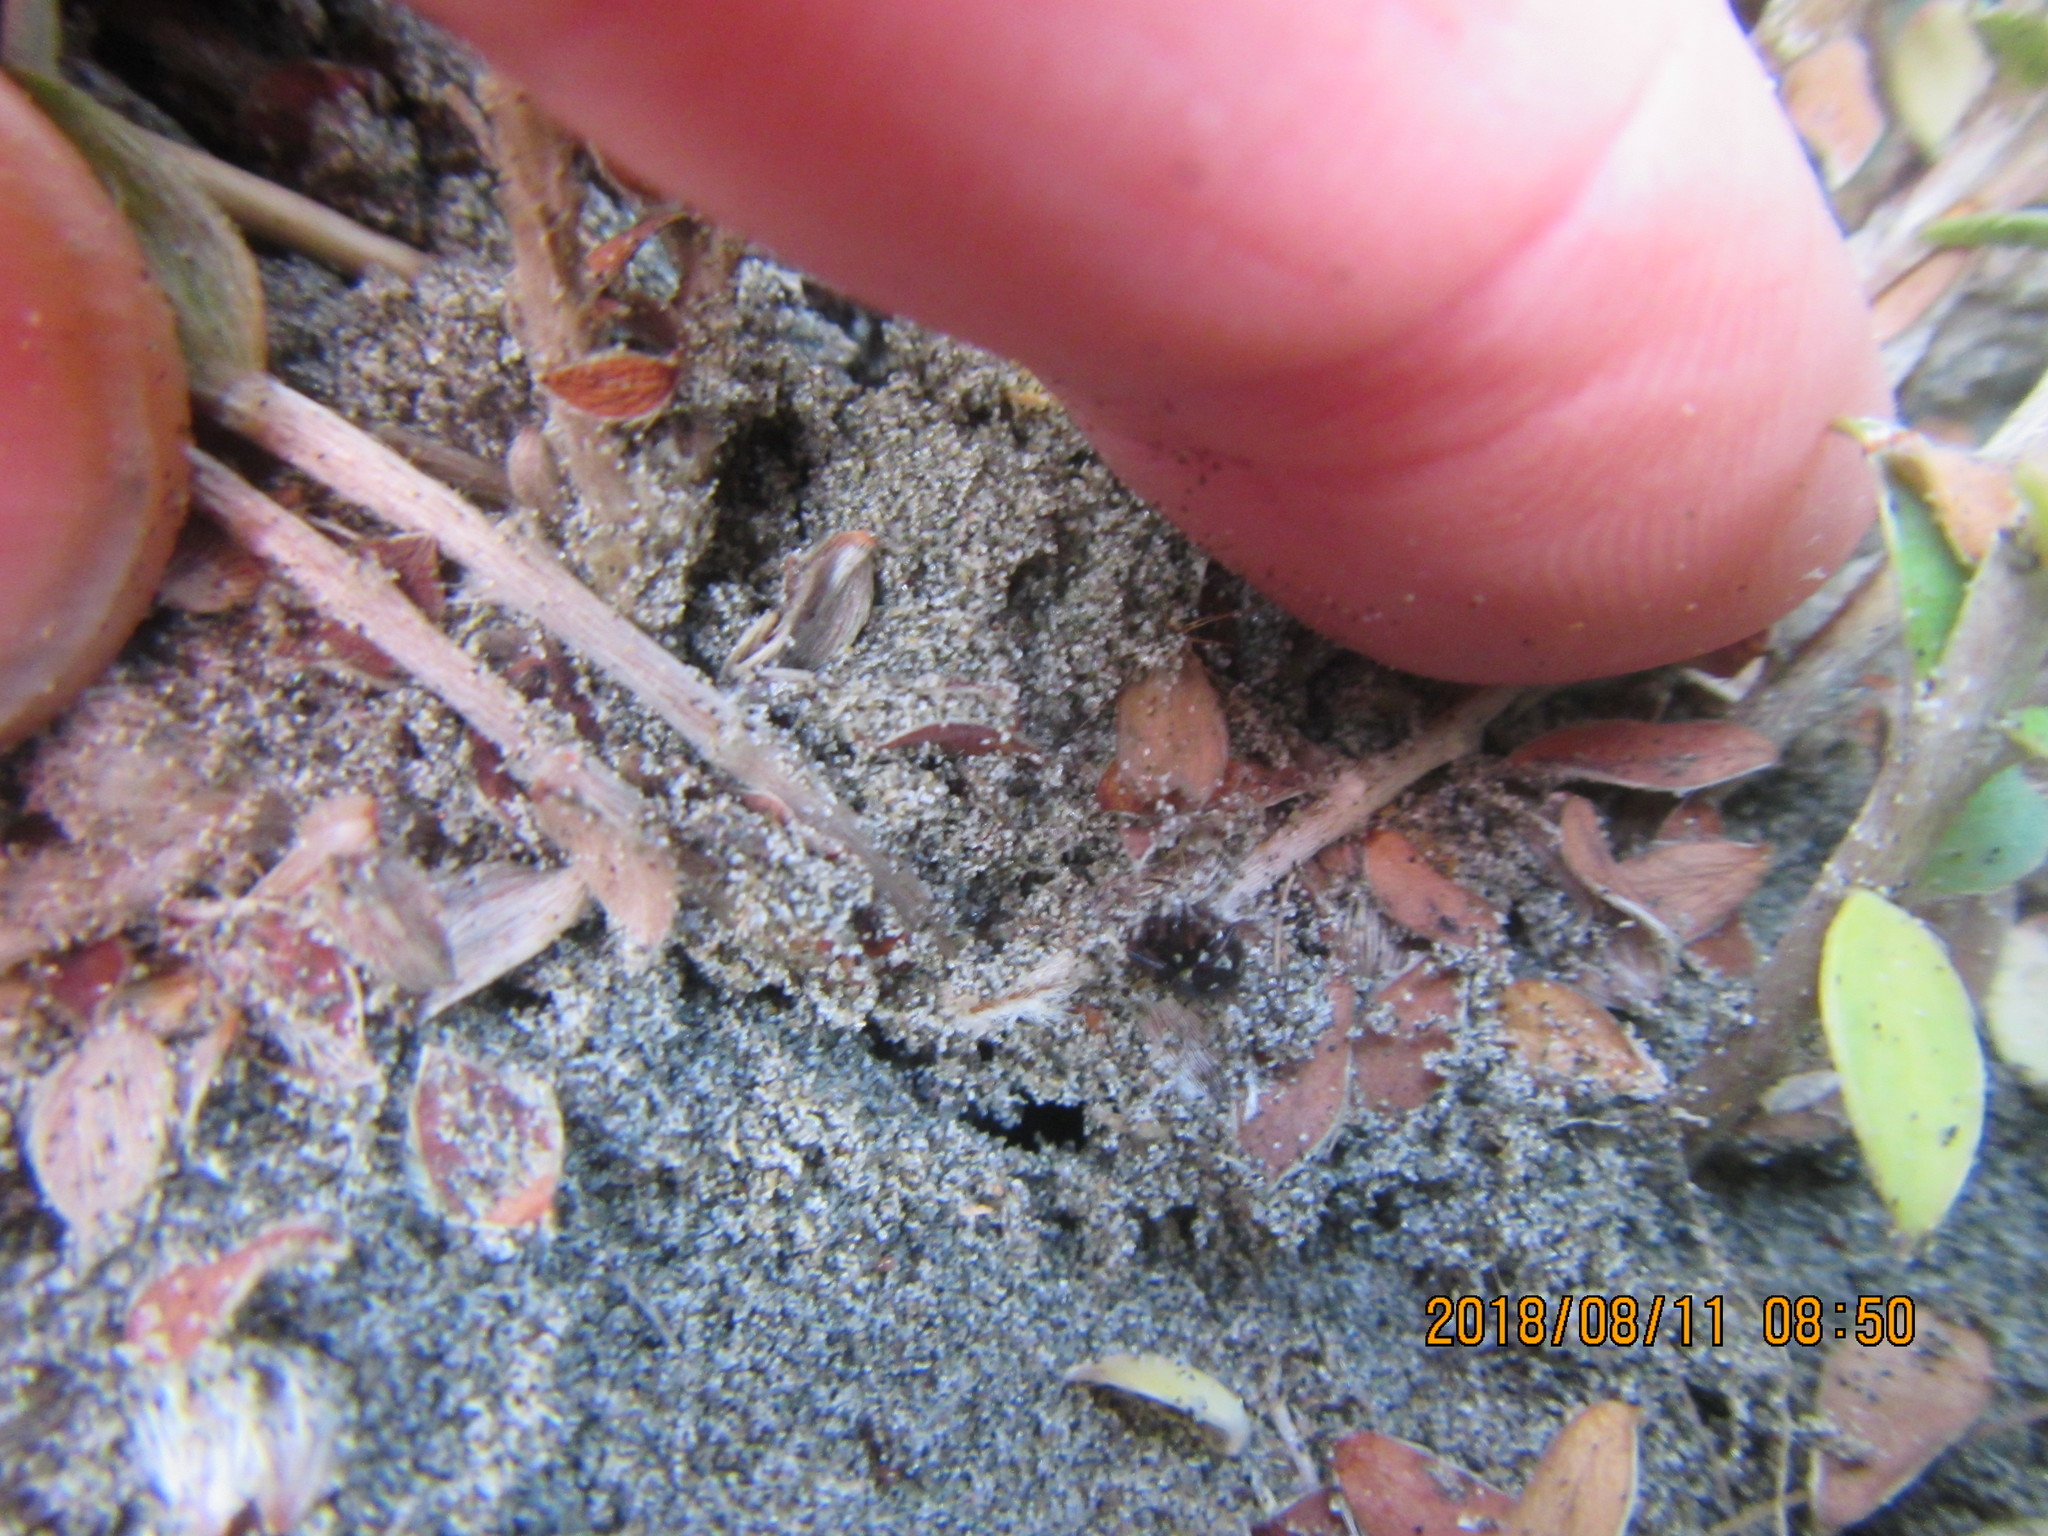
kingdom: Animalia
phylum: Arthropoda
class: Arachnida
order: Araneae
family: Theridiidae
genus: Steatoda
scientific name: Steatoda lepida
